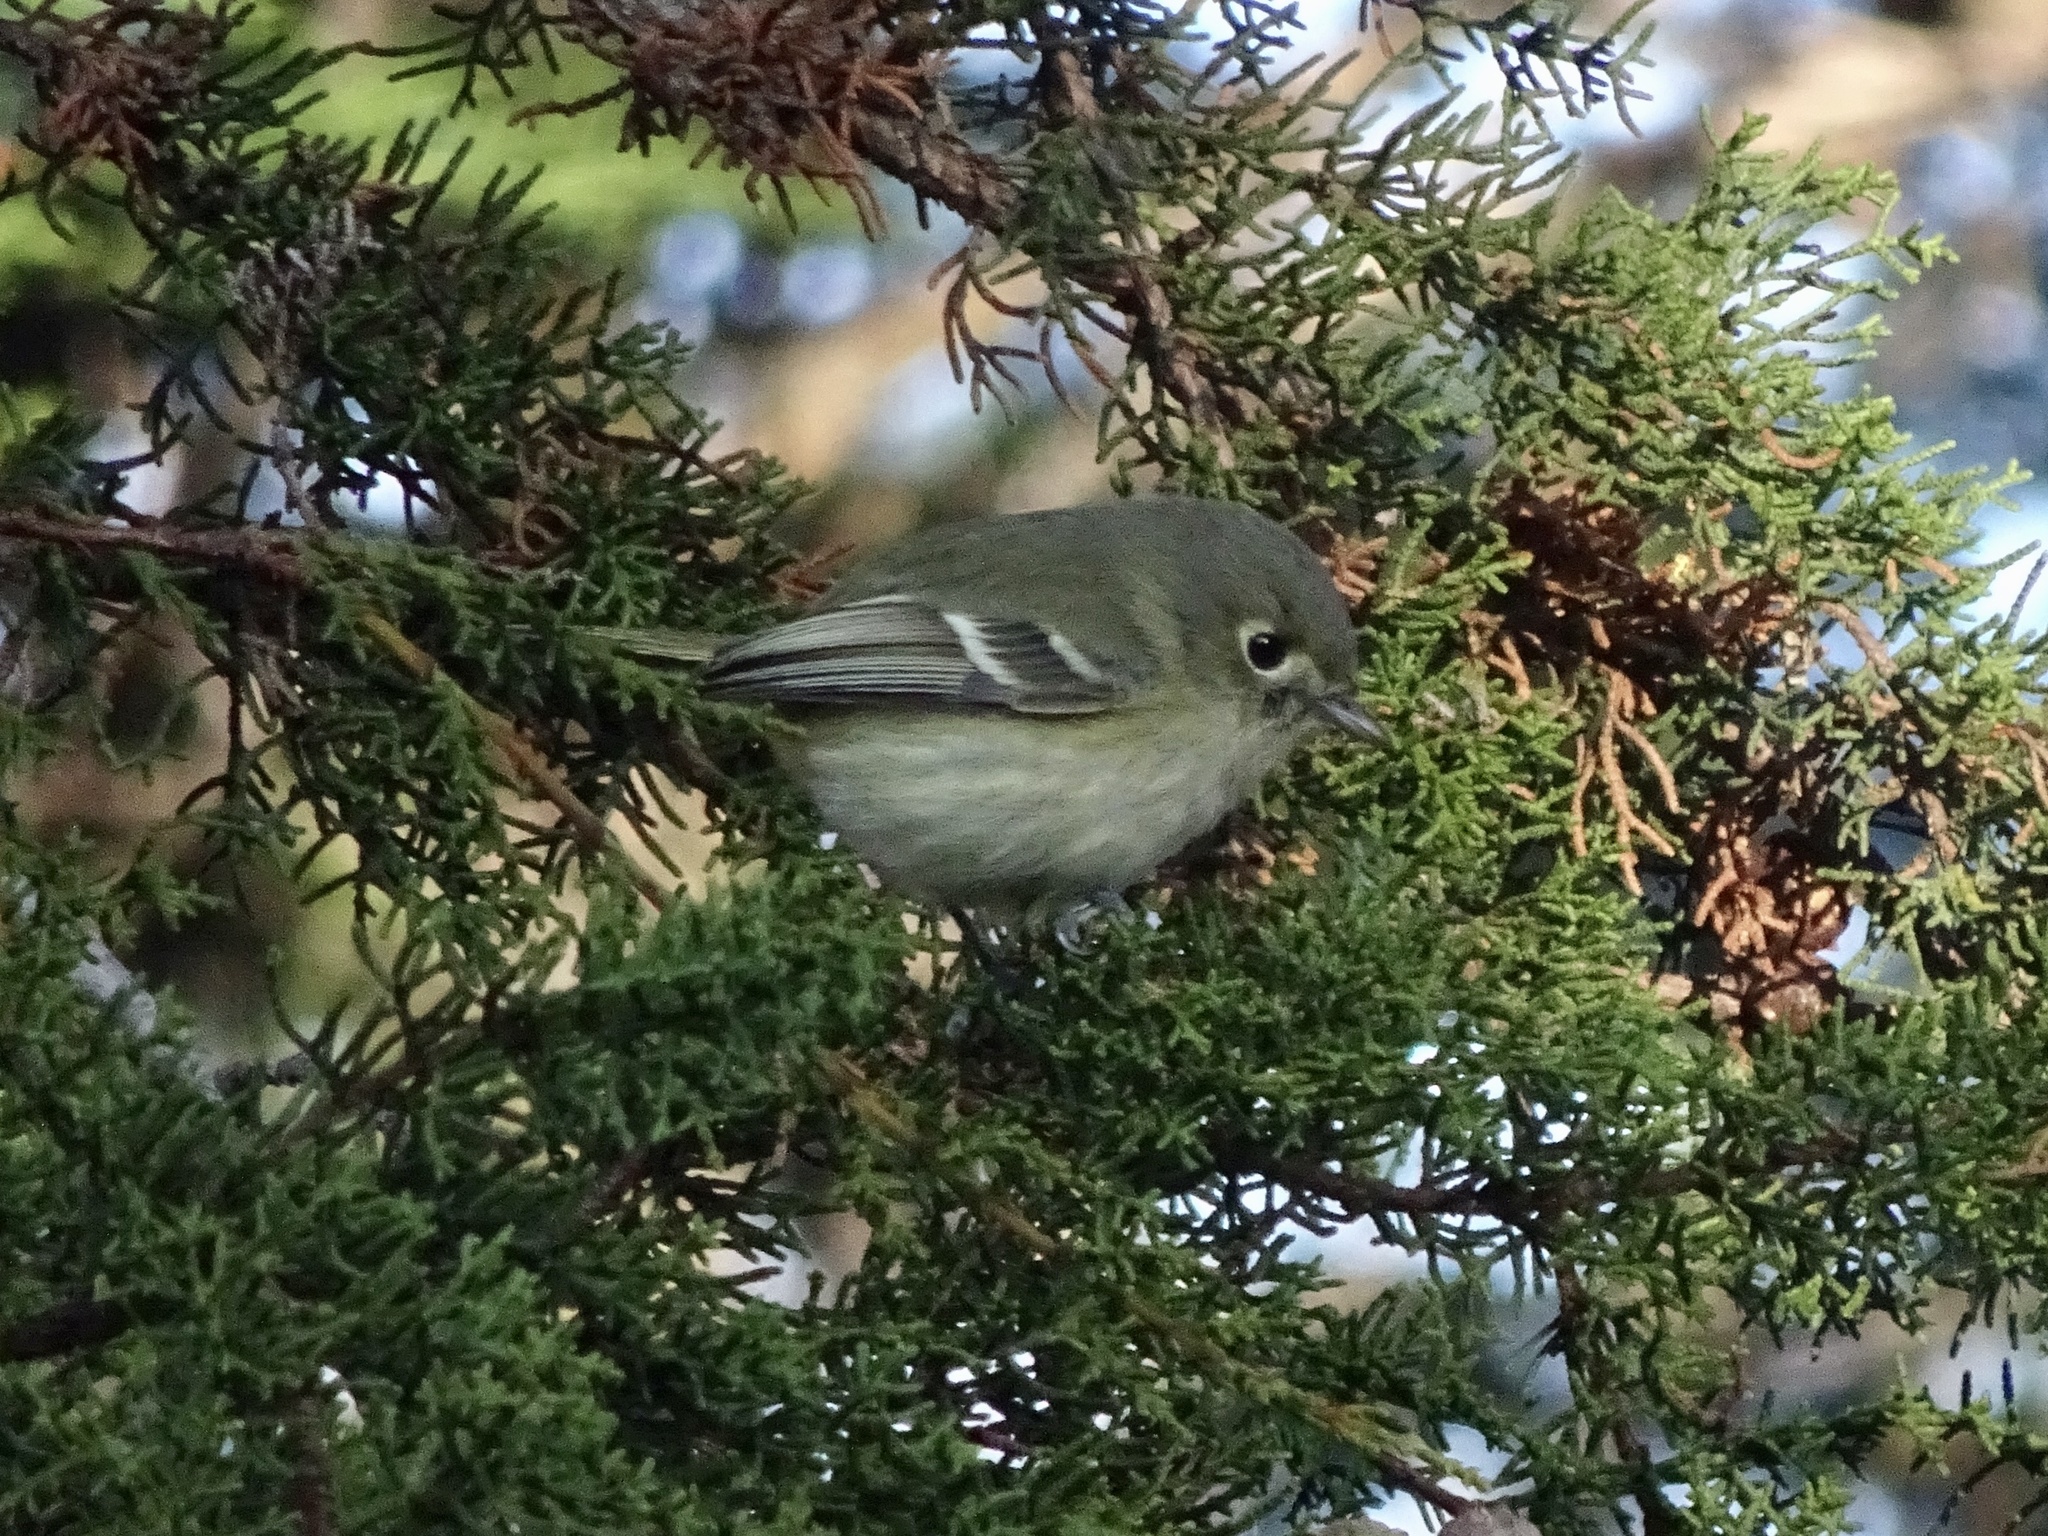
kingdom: Animalia
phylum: Chordata
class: Aves
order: Passeriformes
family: Vireonidae
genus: Vireo
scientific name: Vireo huttoni
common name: Hutton's vireo
